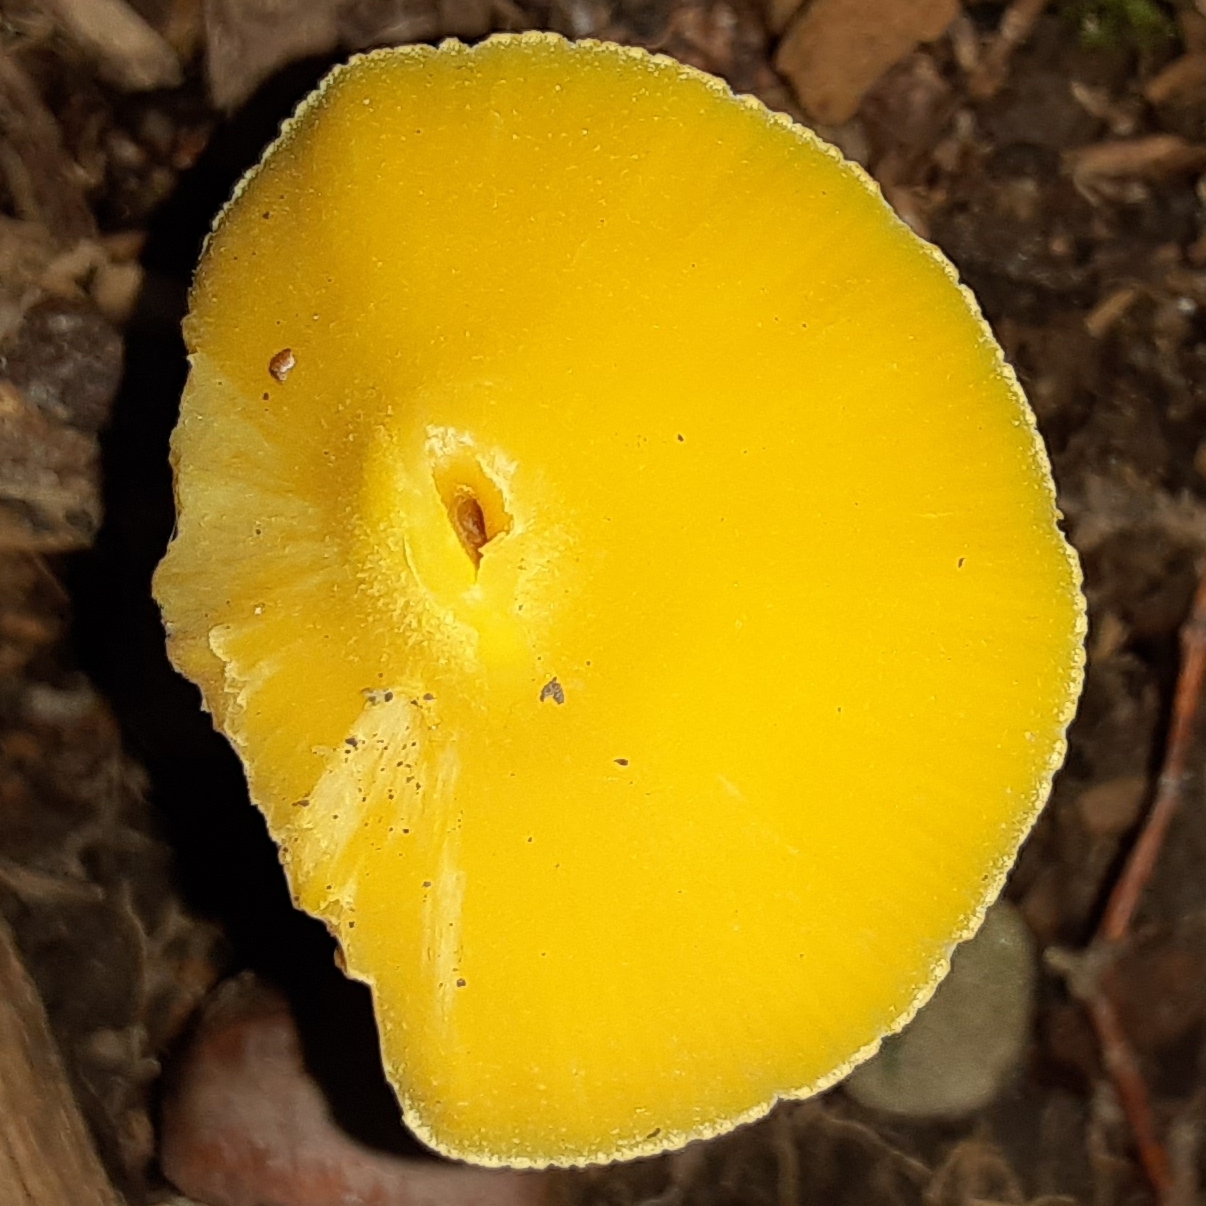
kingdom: Fungi
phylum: Basidiomycota
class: Agaricomycetes
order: Agaricales
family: Entolomataceae
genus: Entoloma
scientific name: Entoloma murrayi
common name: Yellow unicorn entoloma
